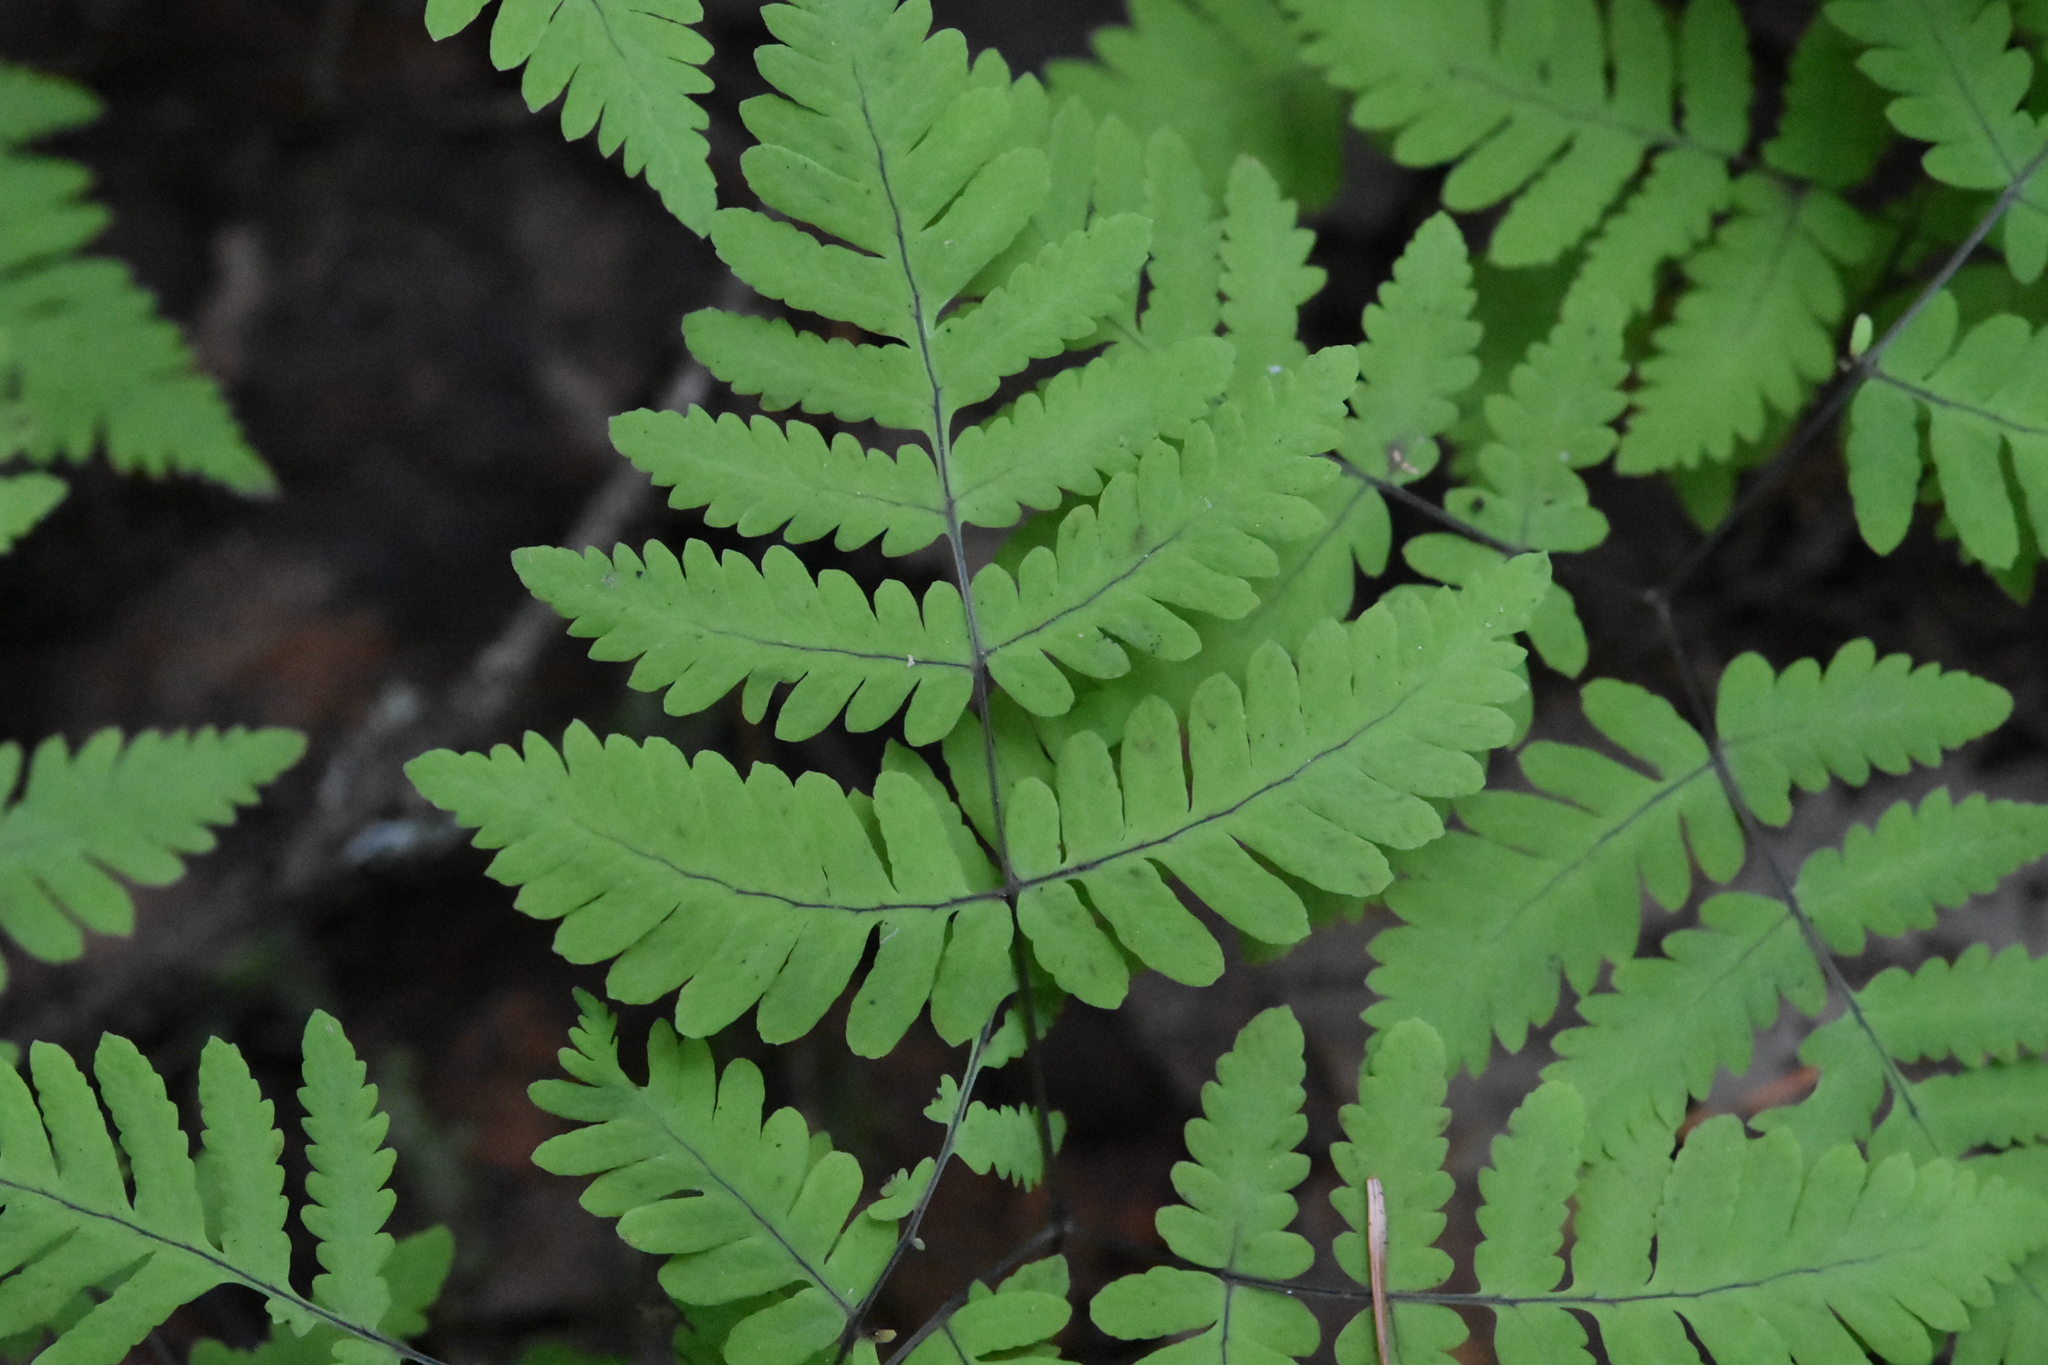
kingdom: Plantae
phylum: Tracheophyta
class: Polypodiopsida
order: Polypodiales
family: Cystopteridaceae
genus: Gymnocarpium
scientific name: Gymnocarpium dryopteris
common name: Oak fern
